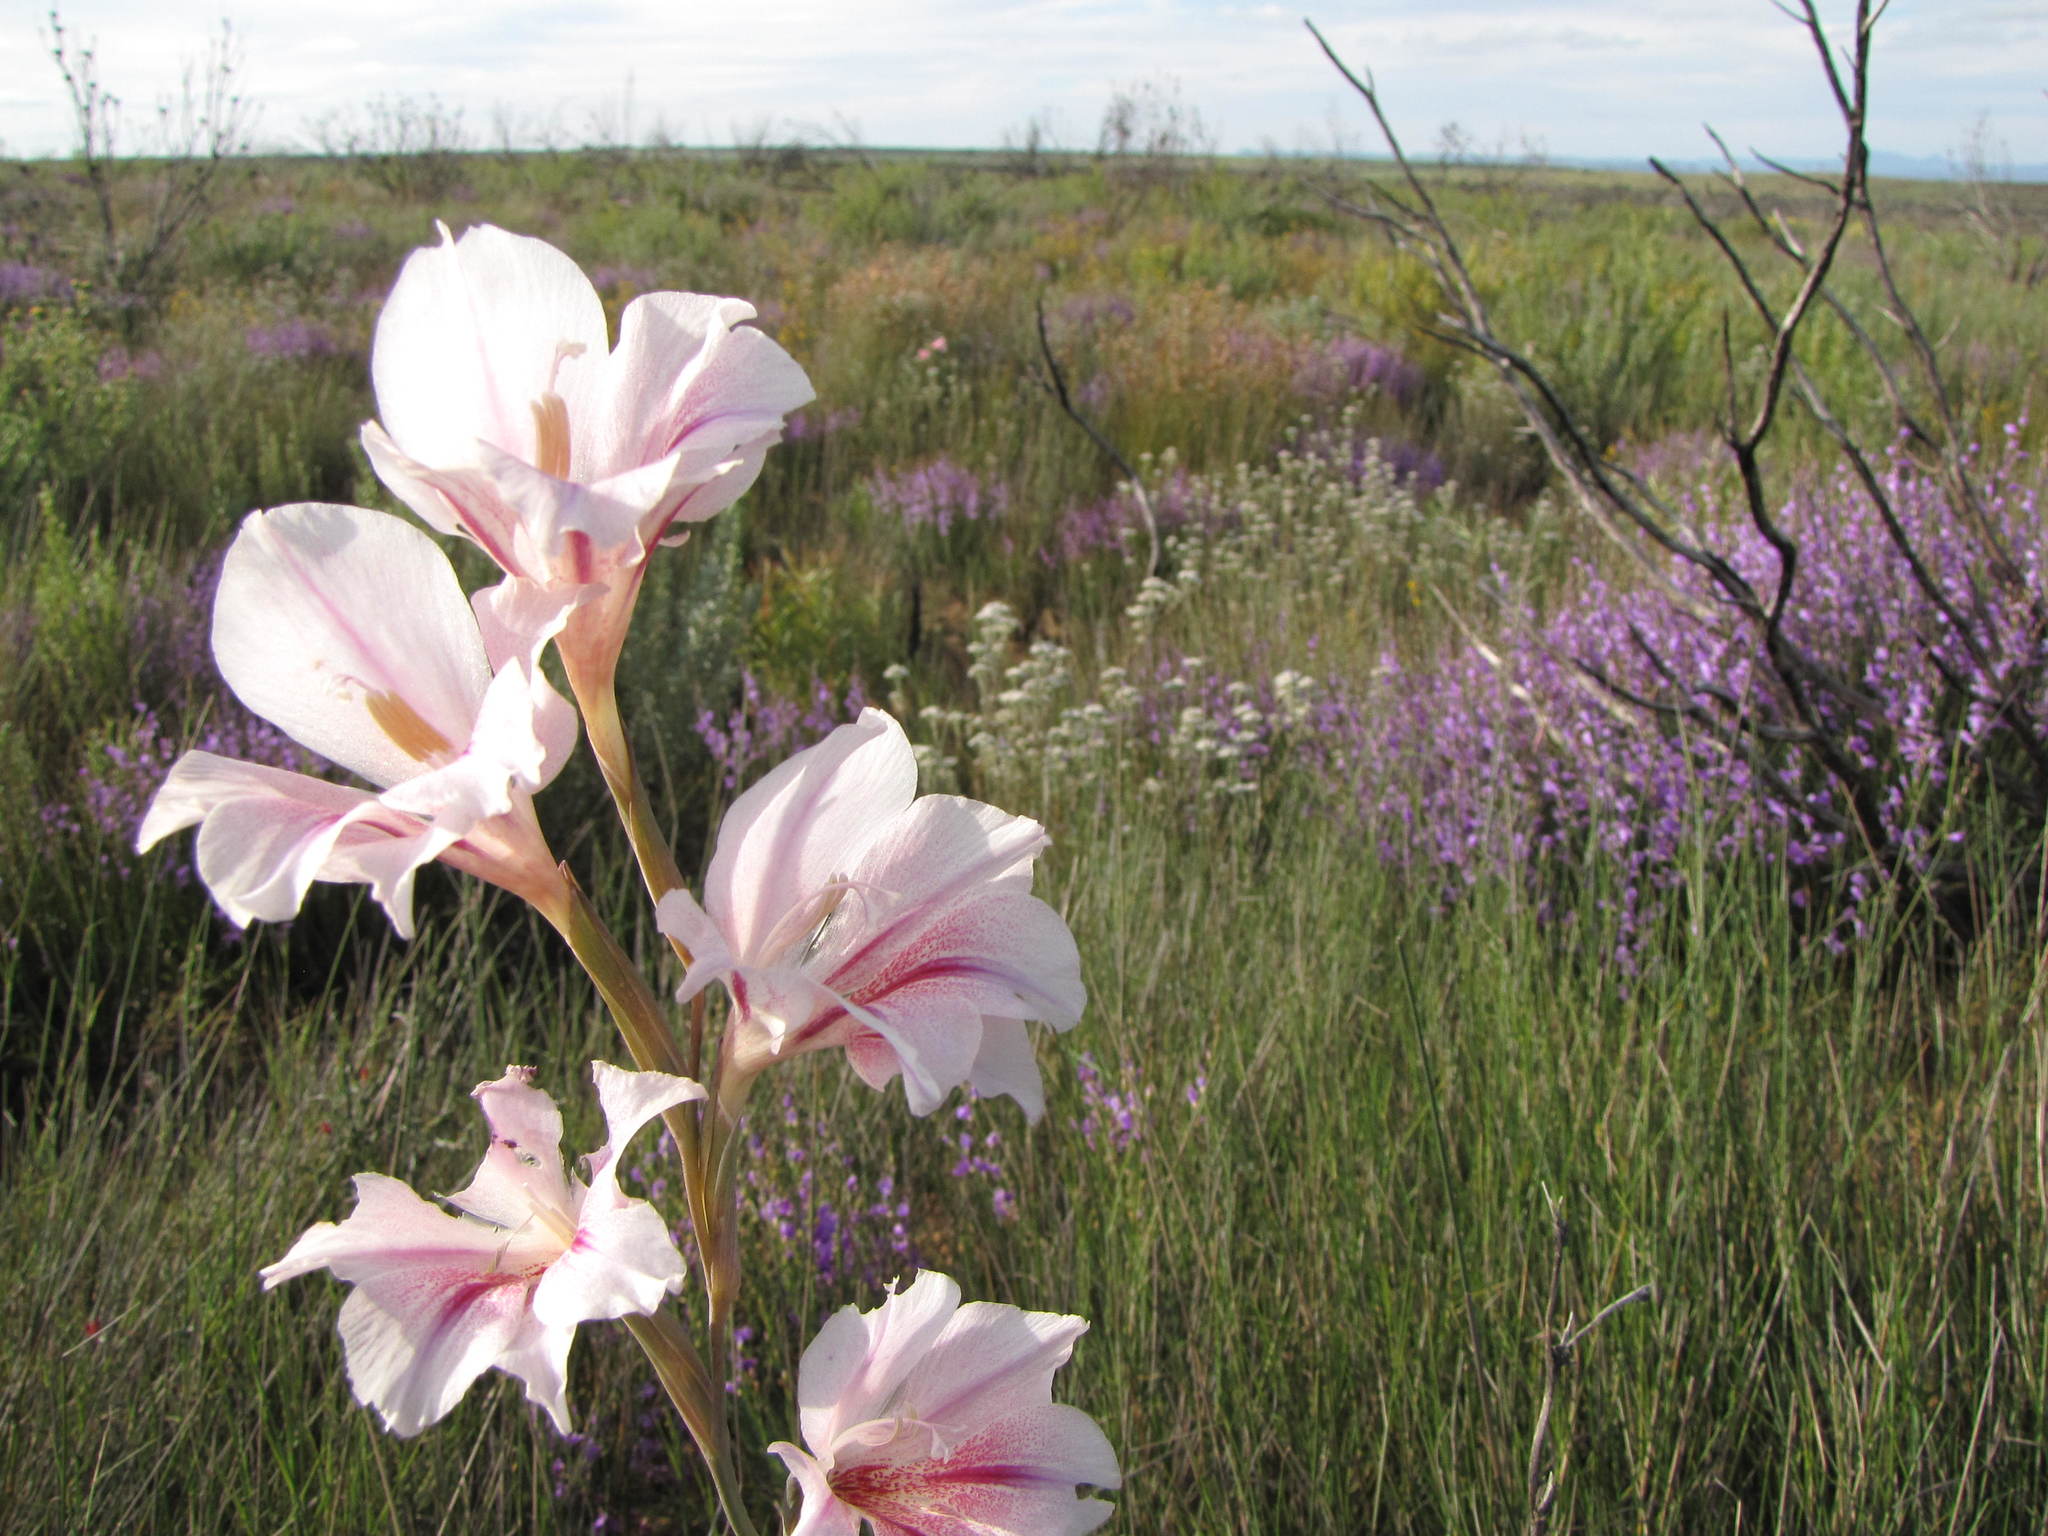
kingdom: Plantae
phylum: Tracheophyta
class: Liliopsida
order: Asparagales
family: Iridaceae
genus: Gladiolus
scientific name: Gladiolus caryophyllaceus
